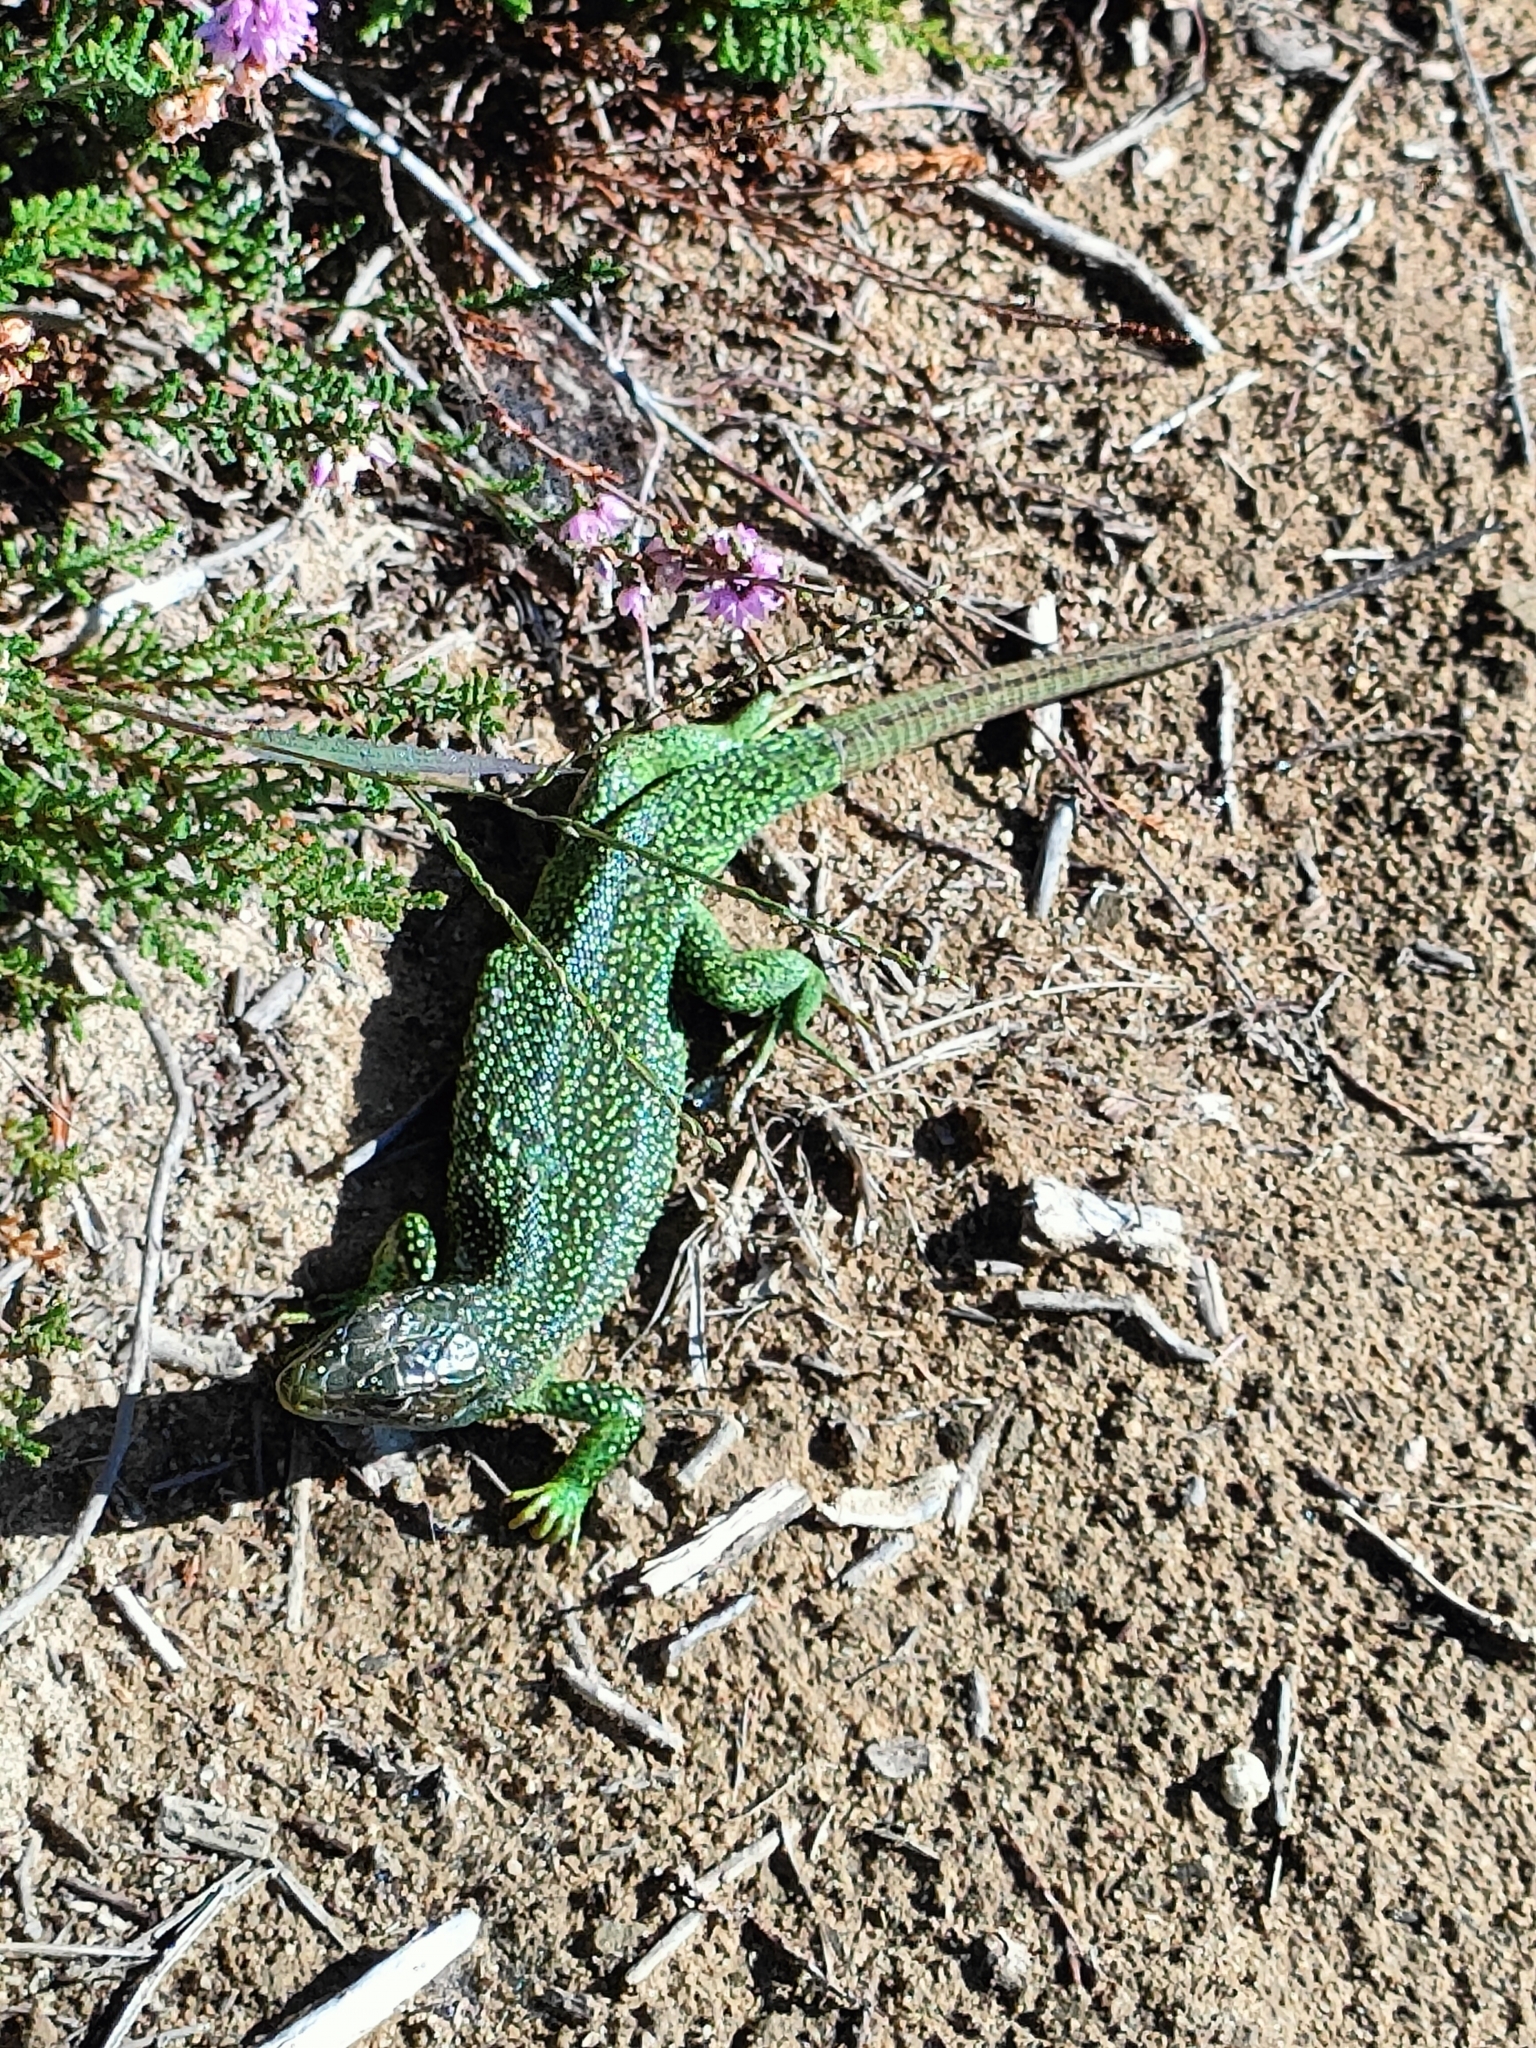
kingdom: Animalia
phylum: Chordata
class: Squamata
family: Lacertidae
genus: Lacerta
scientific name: Lacerta bilineata
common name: Western green lizard
